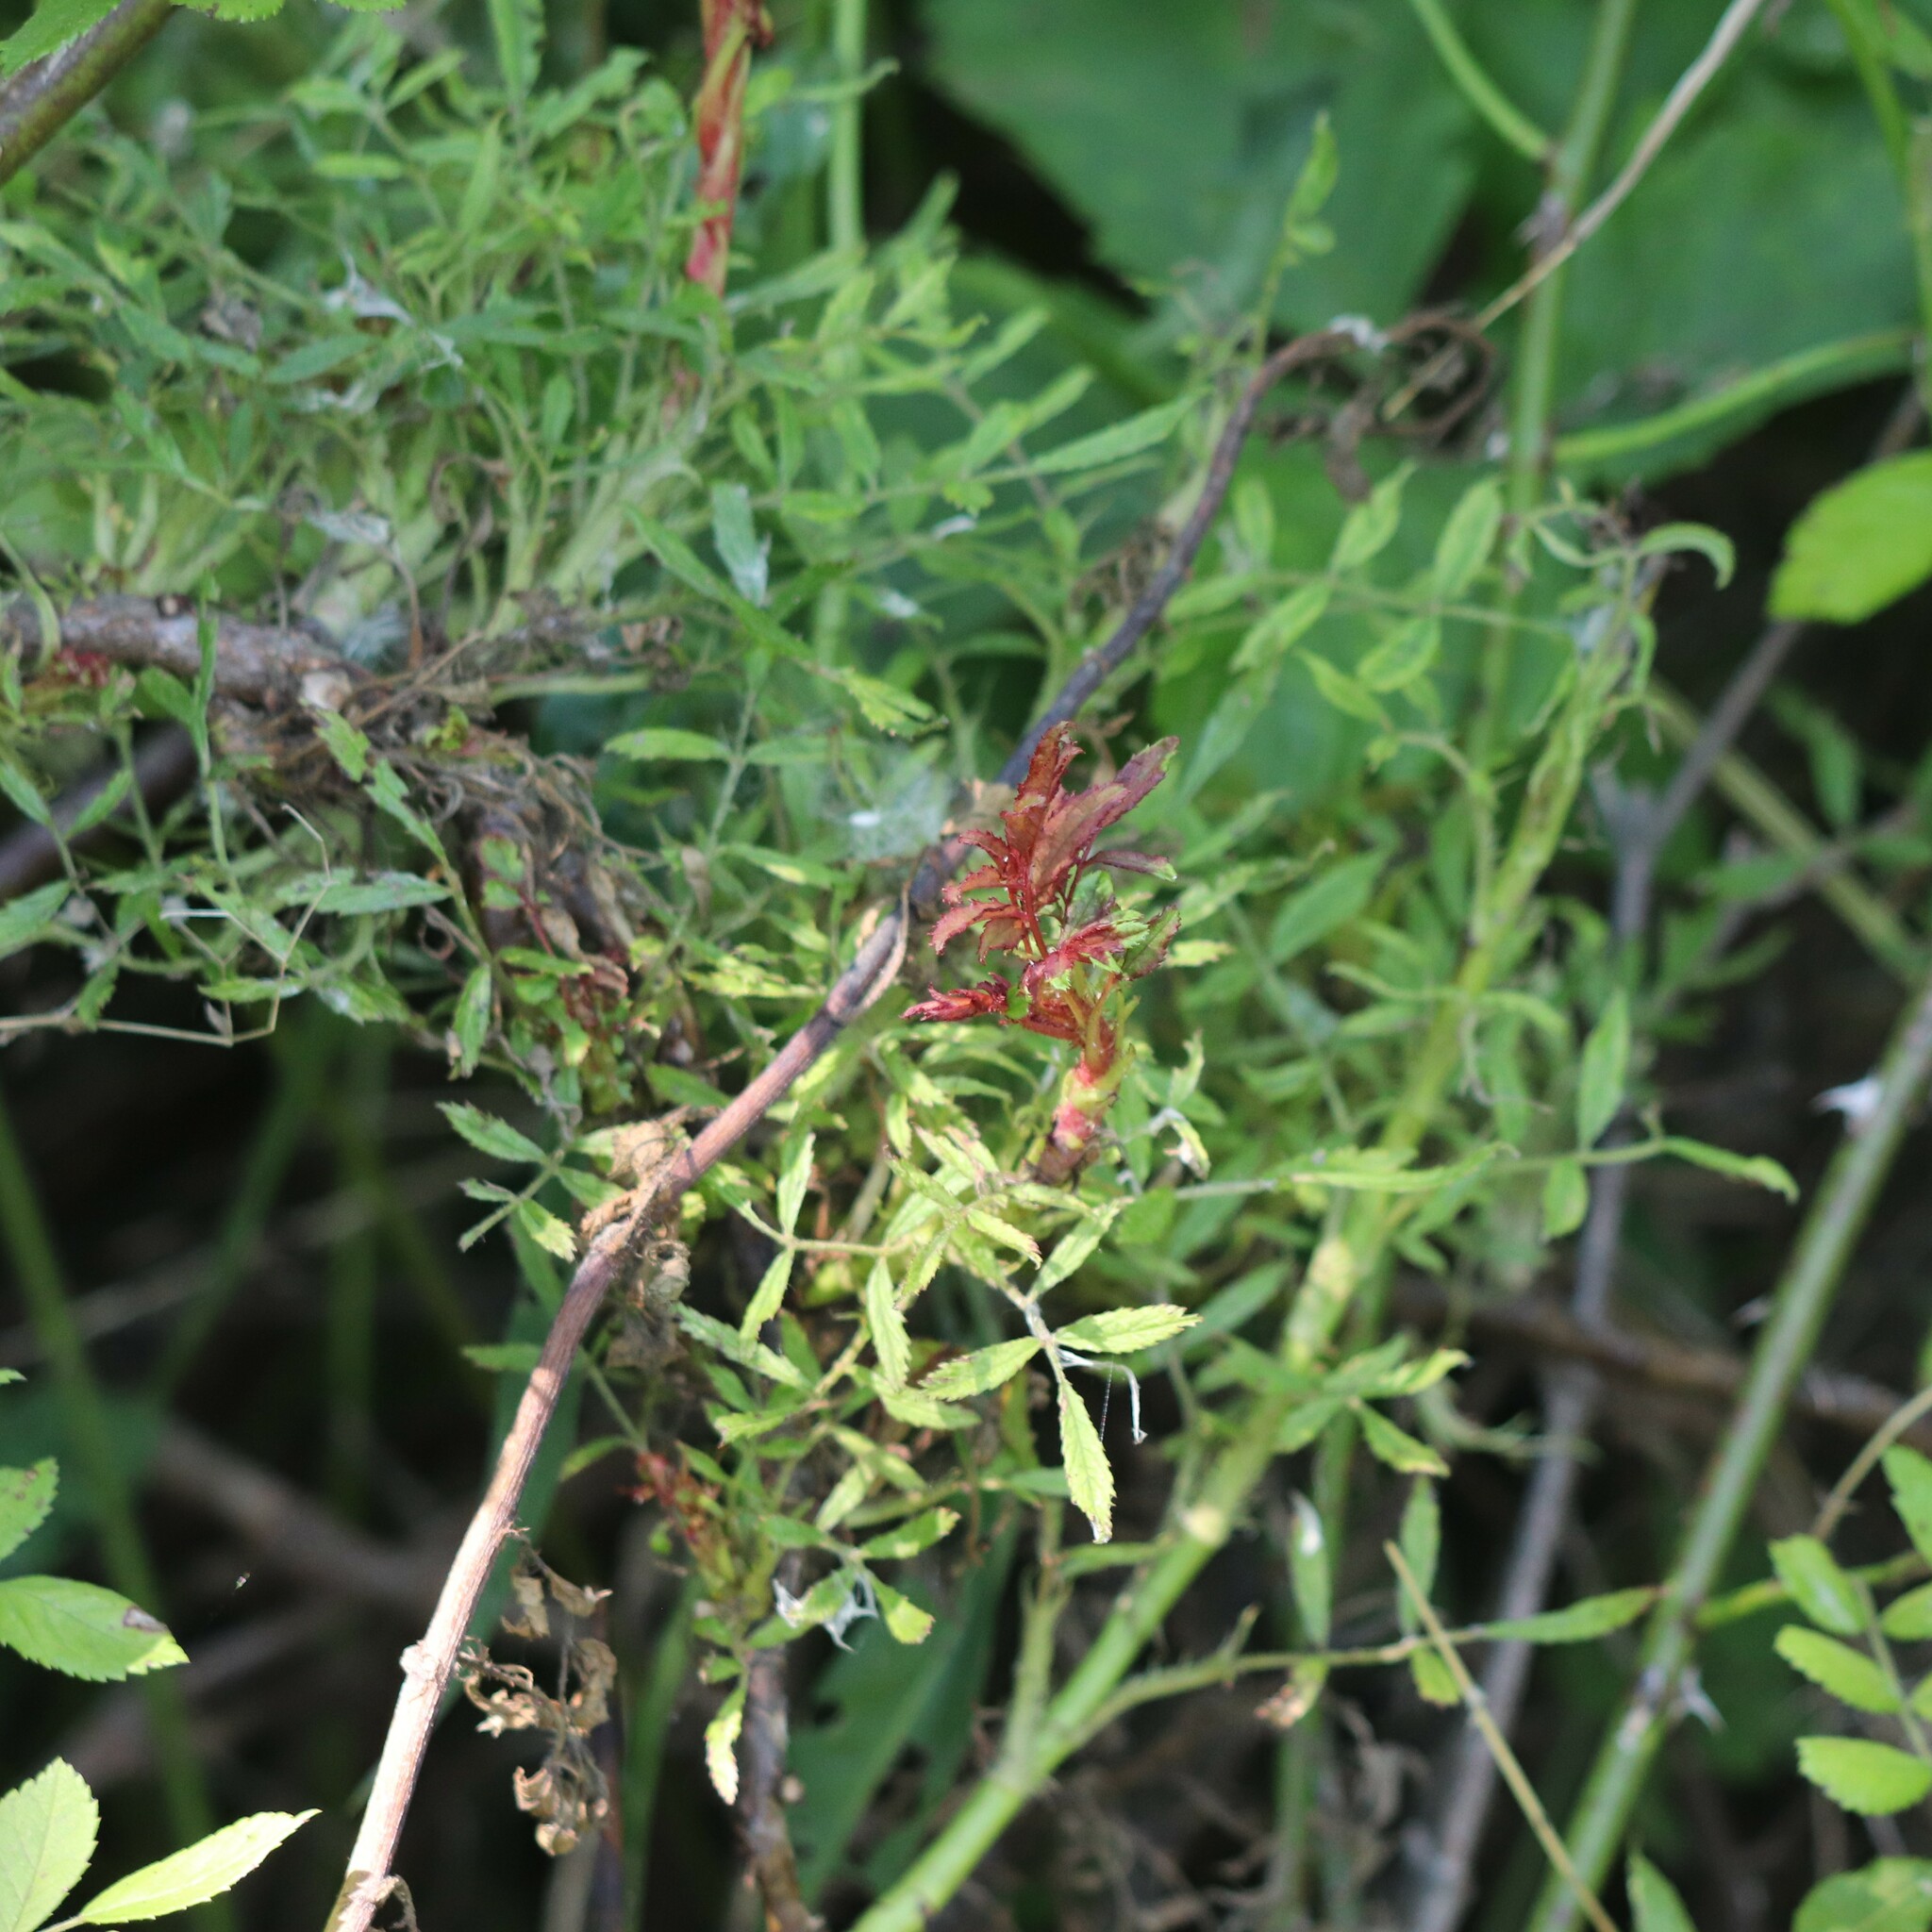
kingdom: Viruses
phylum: Negarnaviricota
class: Ellioviricetes
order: Bunyavirales
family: Fimoviridae
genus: Emaravirus
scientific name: Emaravirus rosae
